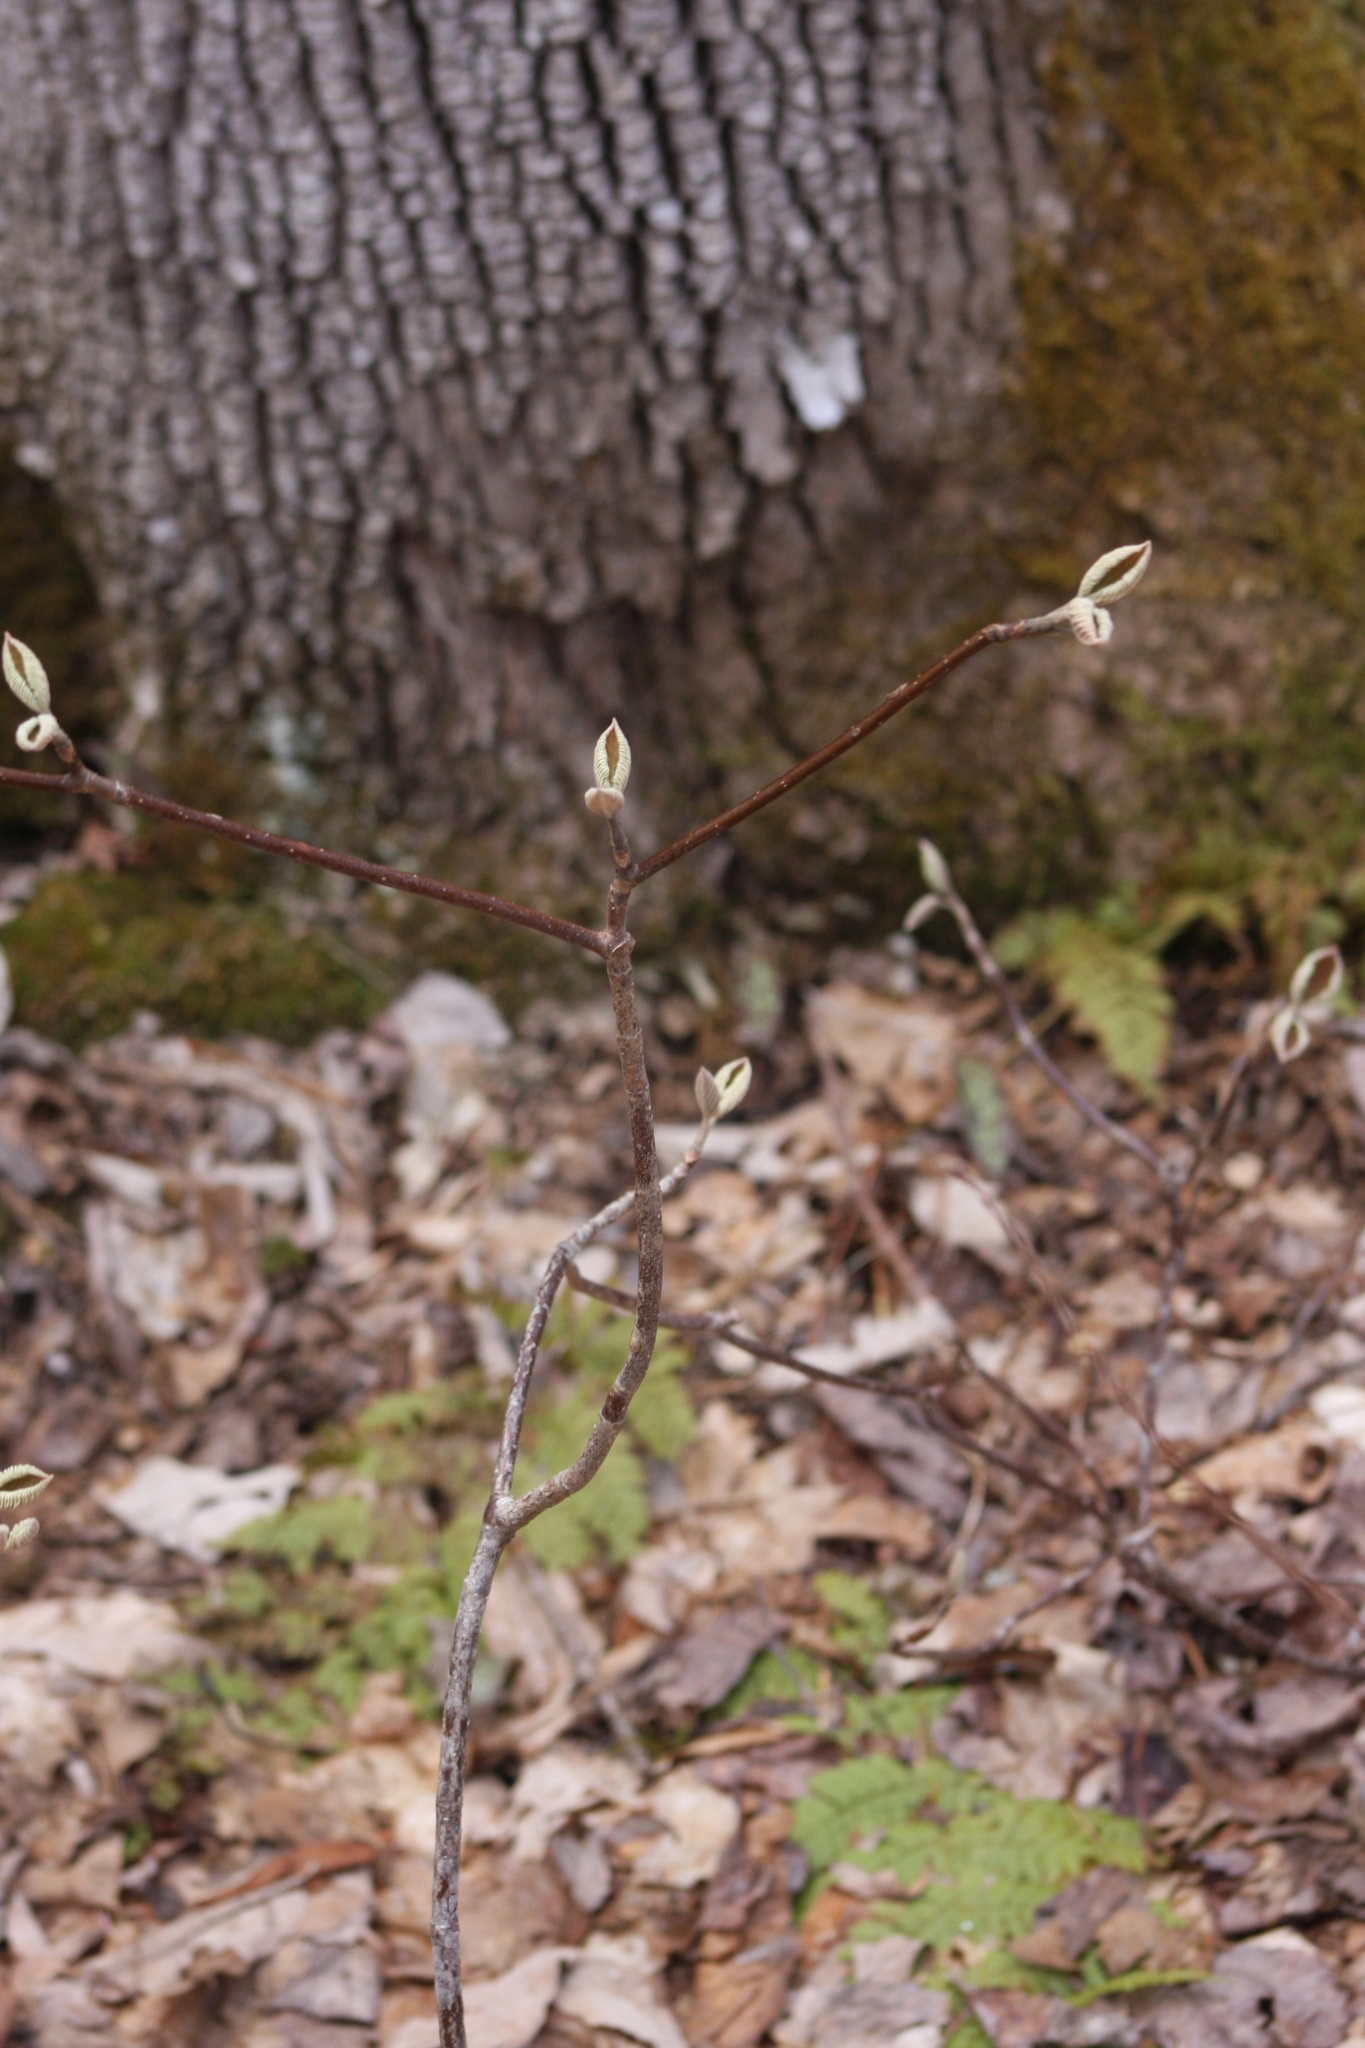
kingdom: Plantae
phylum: Tracheophyta
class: Magnoliopsida
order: Dipsacales
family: Viburnaceae
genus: Viburnum
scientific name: Viburnum lantanoides
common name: Hobblebush
